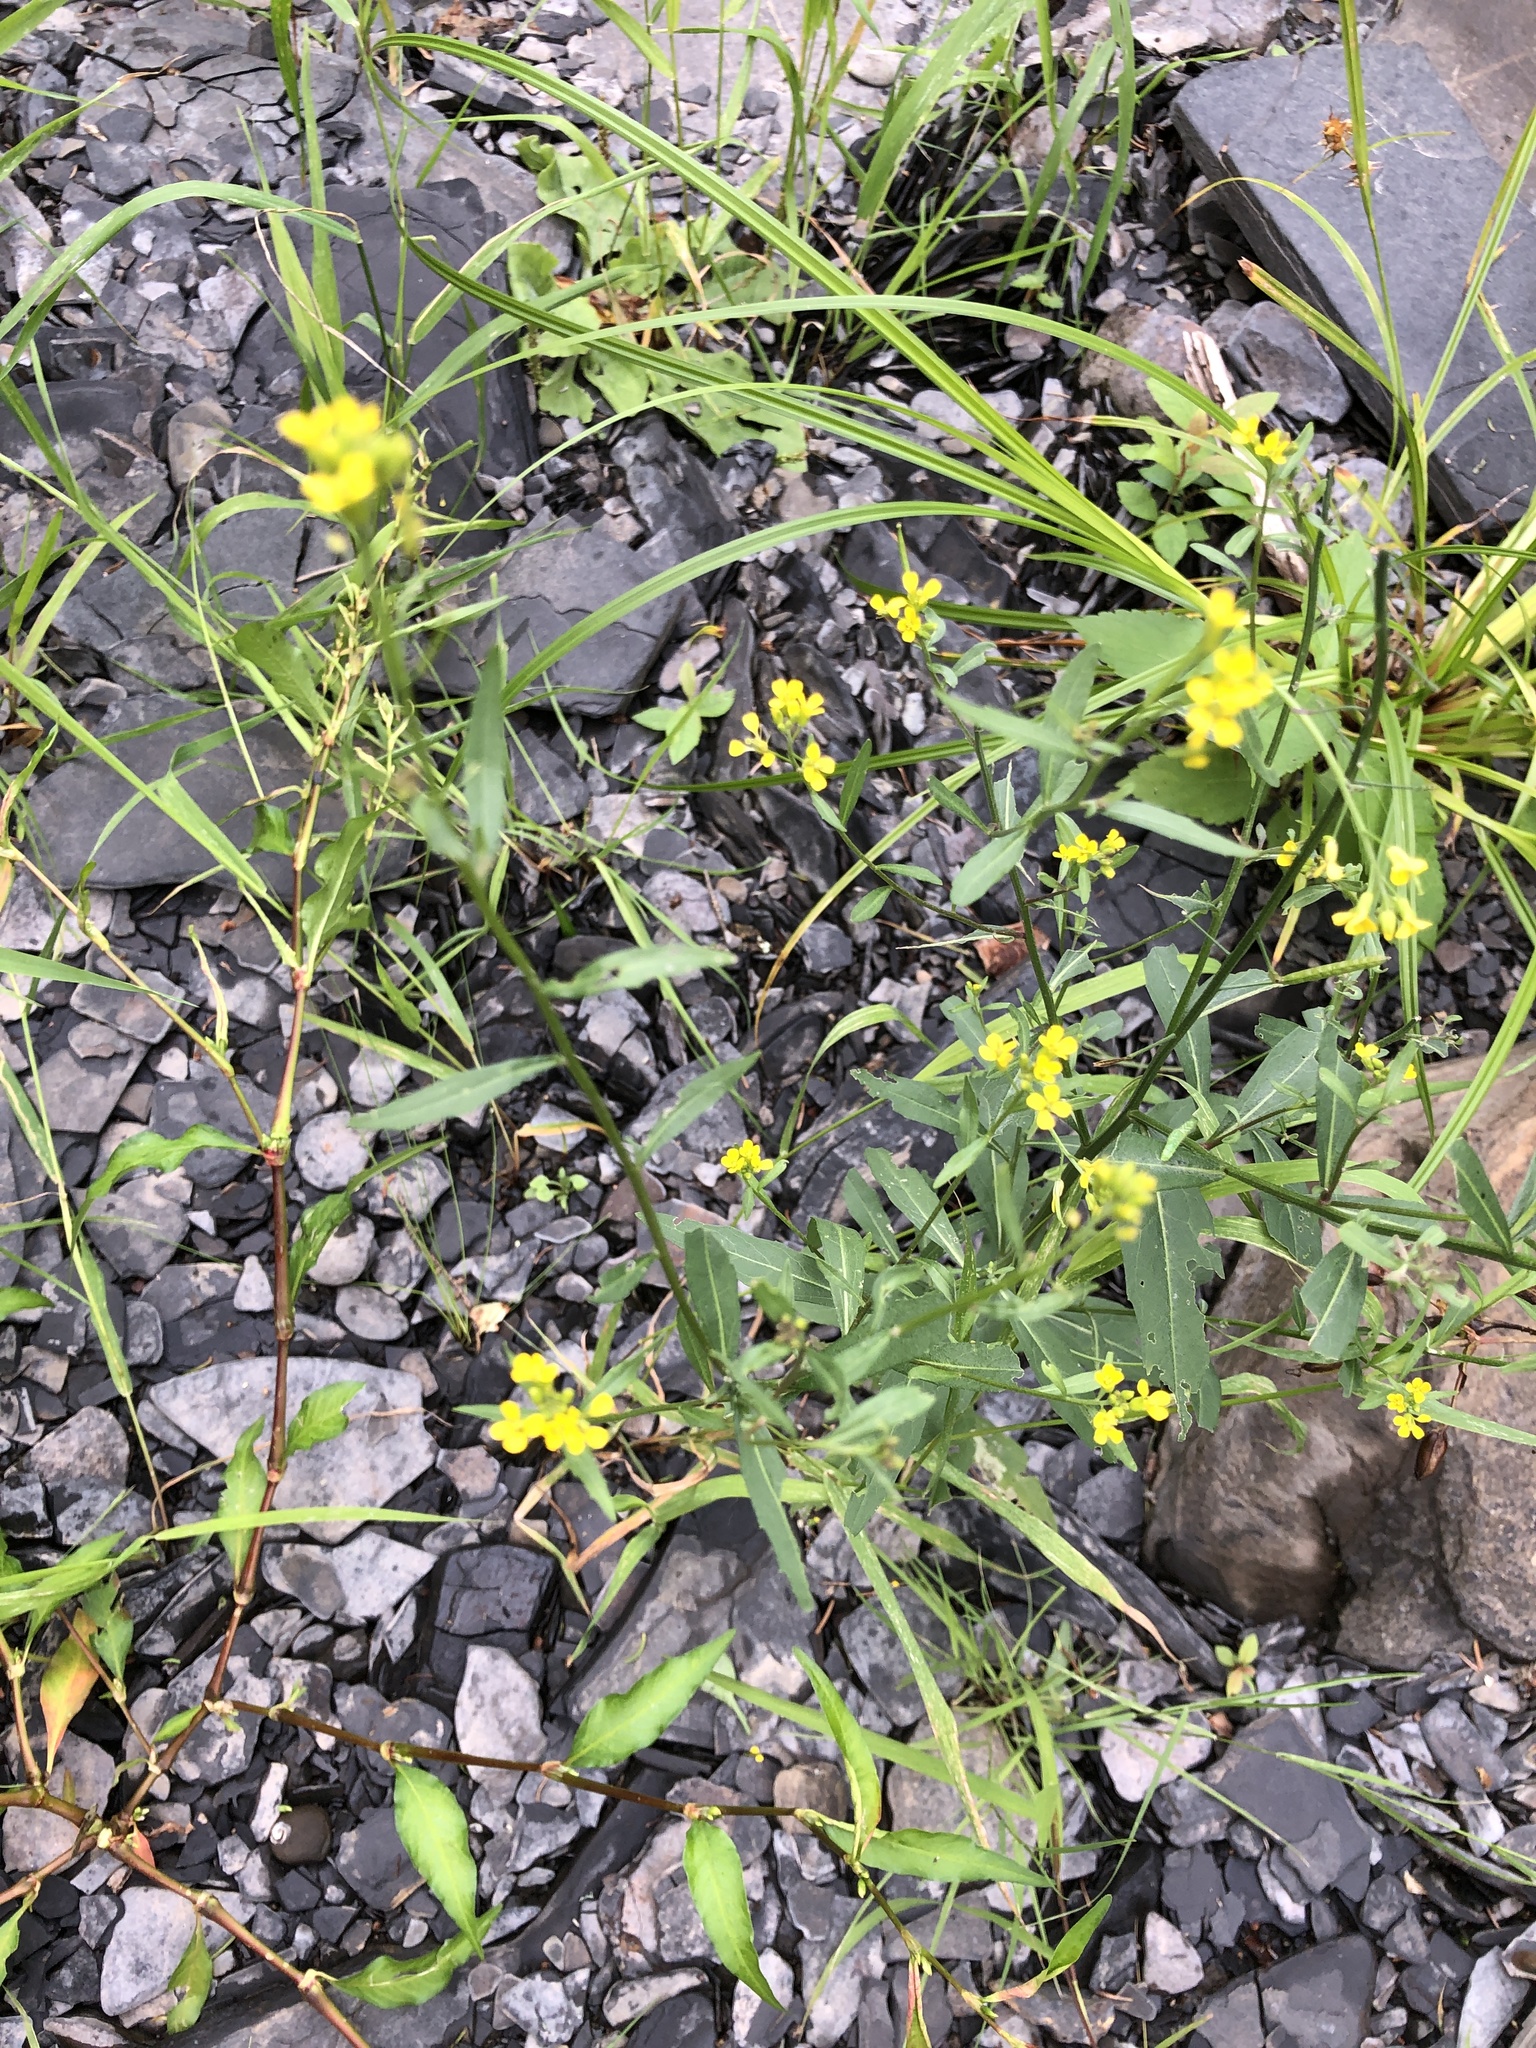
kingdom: Plantae
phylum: Tracheophyta
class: Magnoliopsida
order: Brassicales
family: Brassicaceae
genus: Erysimum
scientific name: Erysimum cheiranthoides
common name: Treacle mustard
